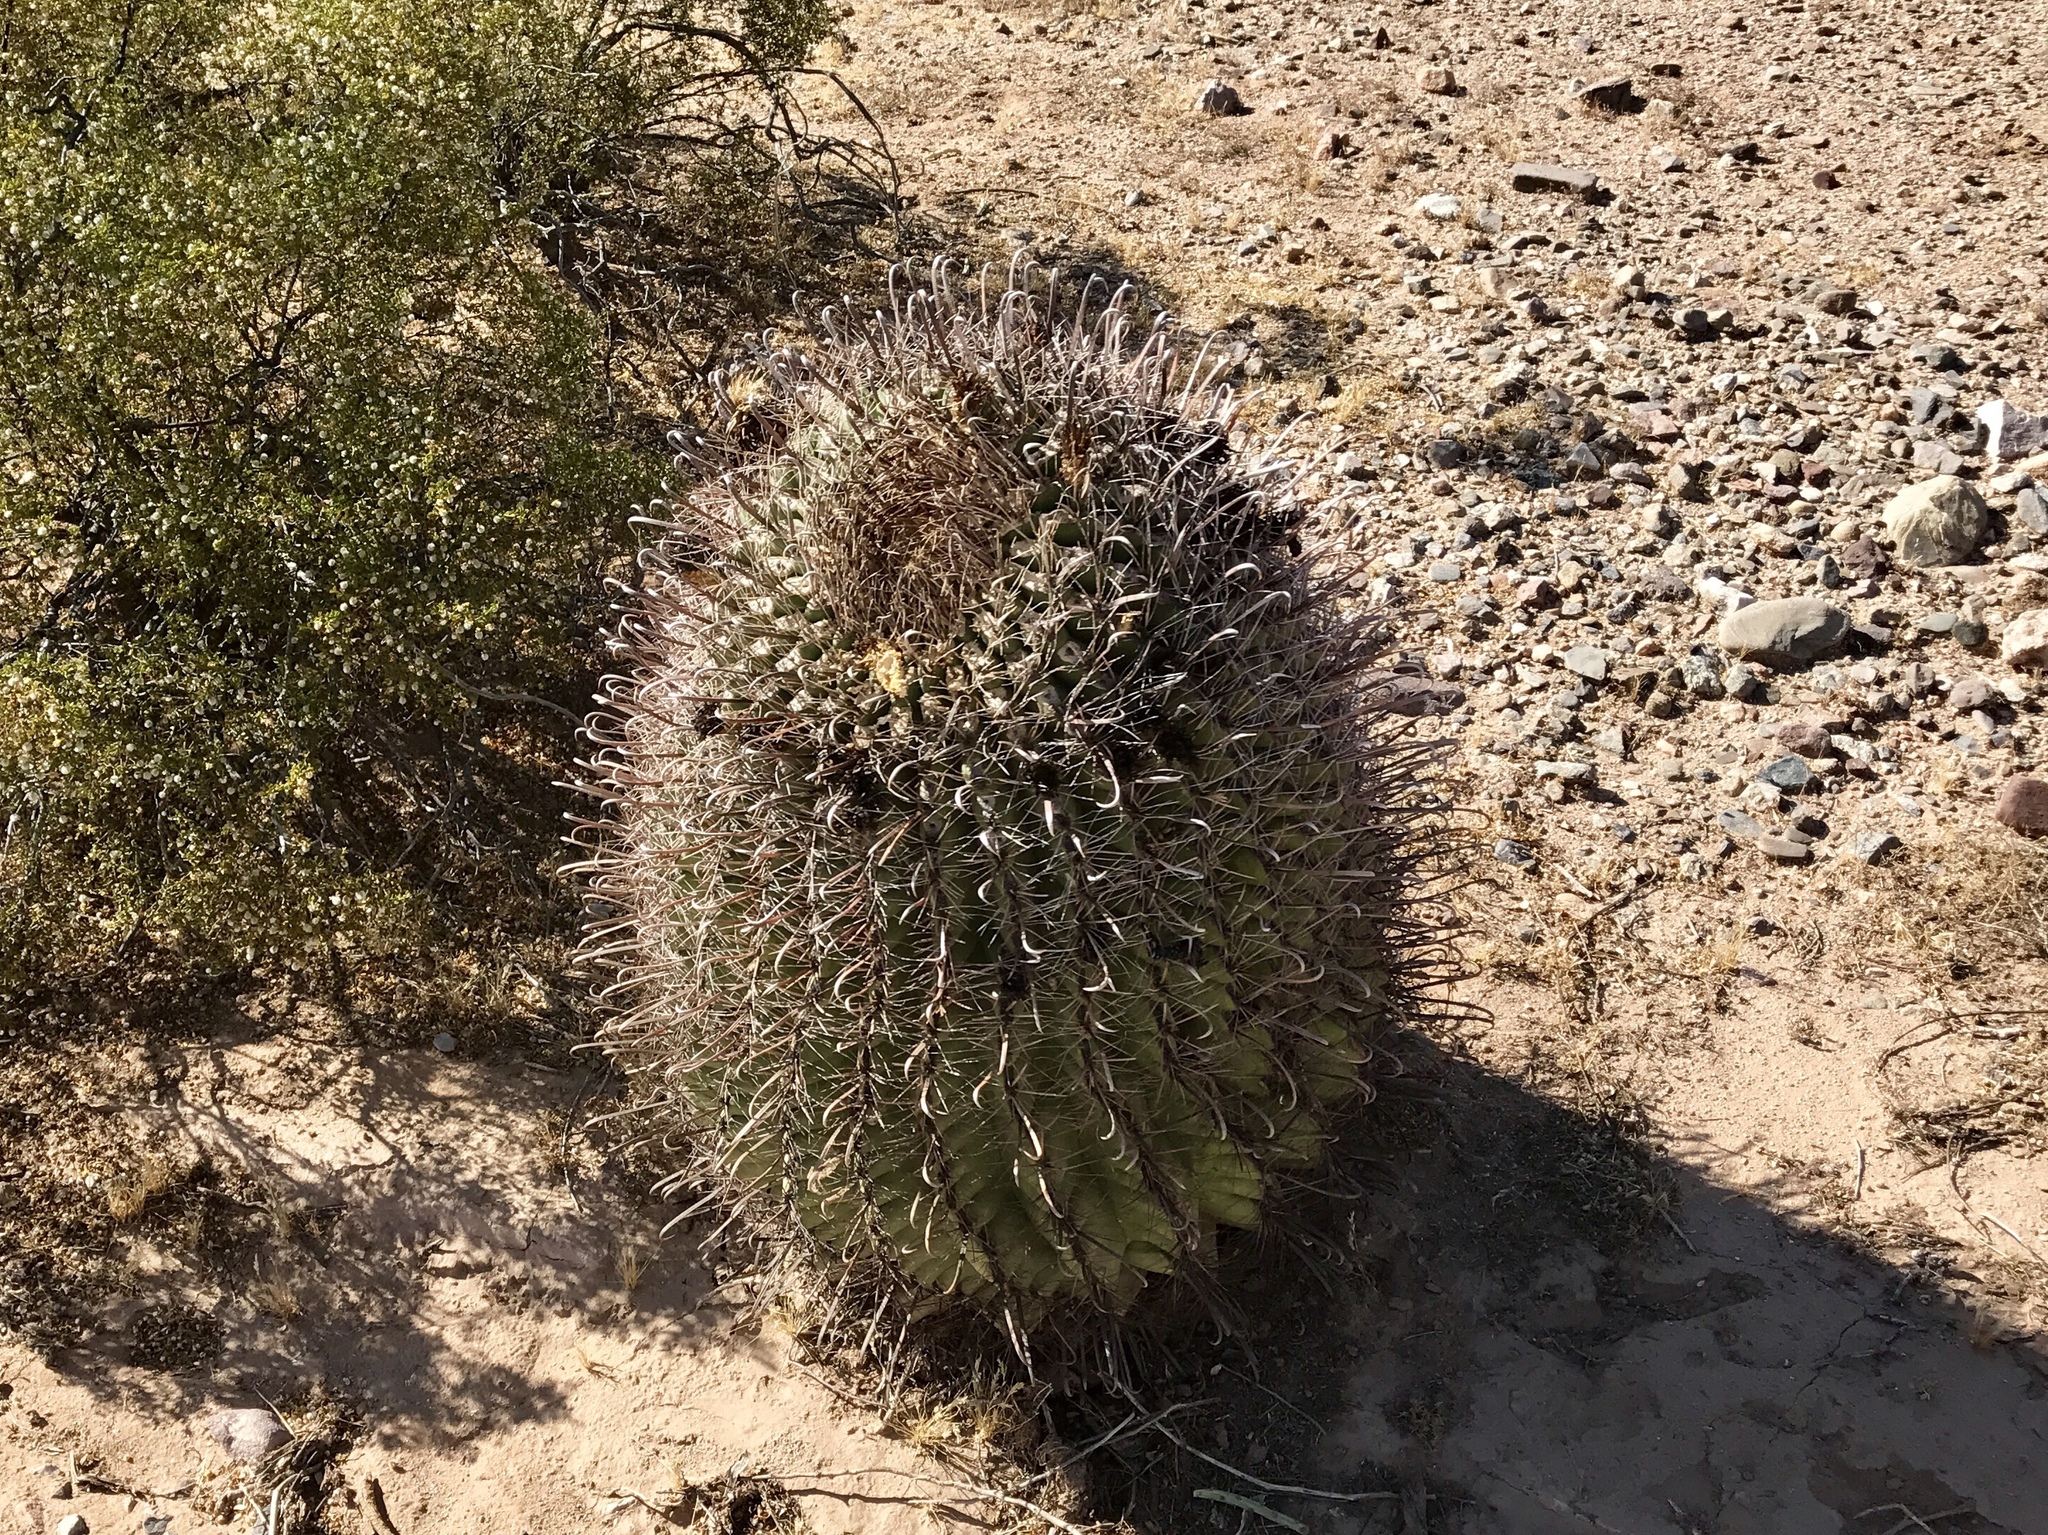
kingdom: Plantae
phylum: Tracheophyta
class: Magnoliopsida
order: Caryophyllales
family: Cactaceae
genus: Ferocactus
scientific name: Ferocactus wislizeni
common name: Candy barrel cactus
